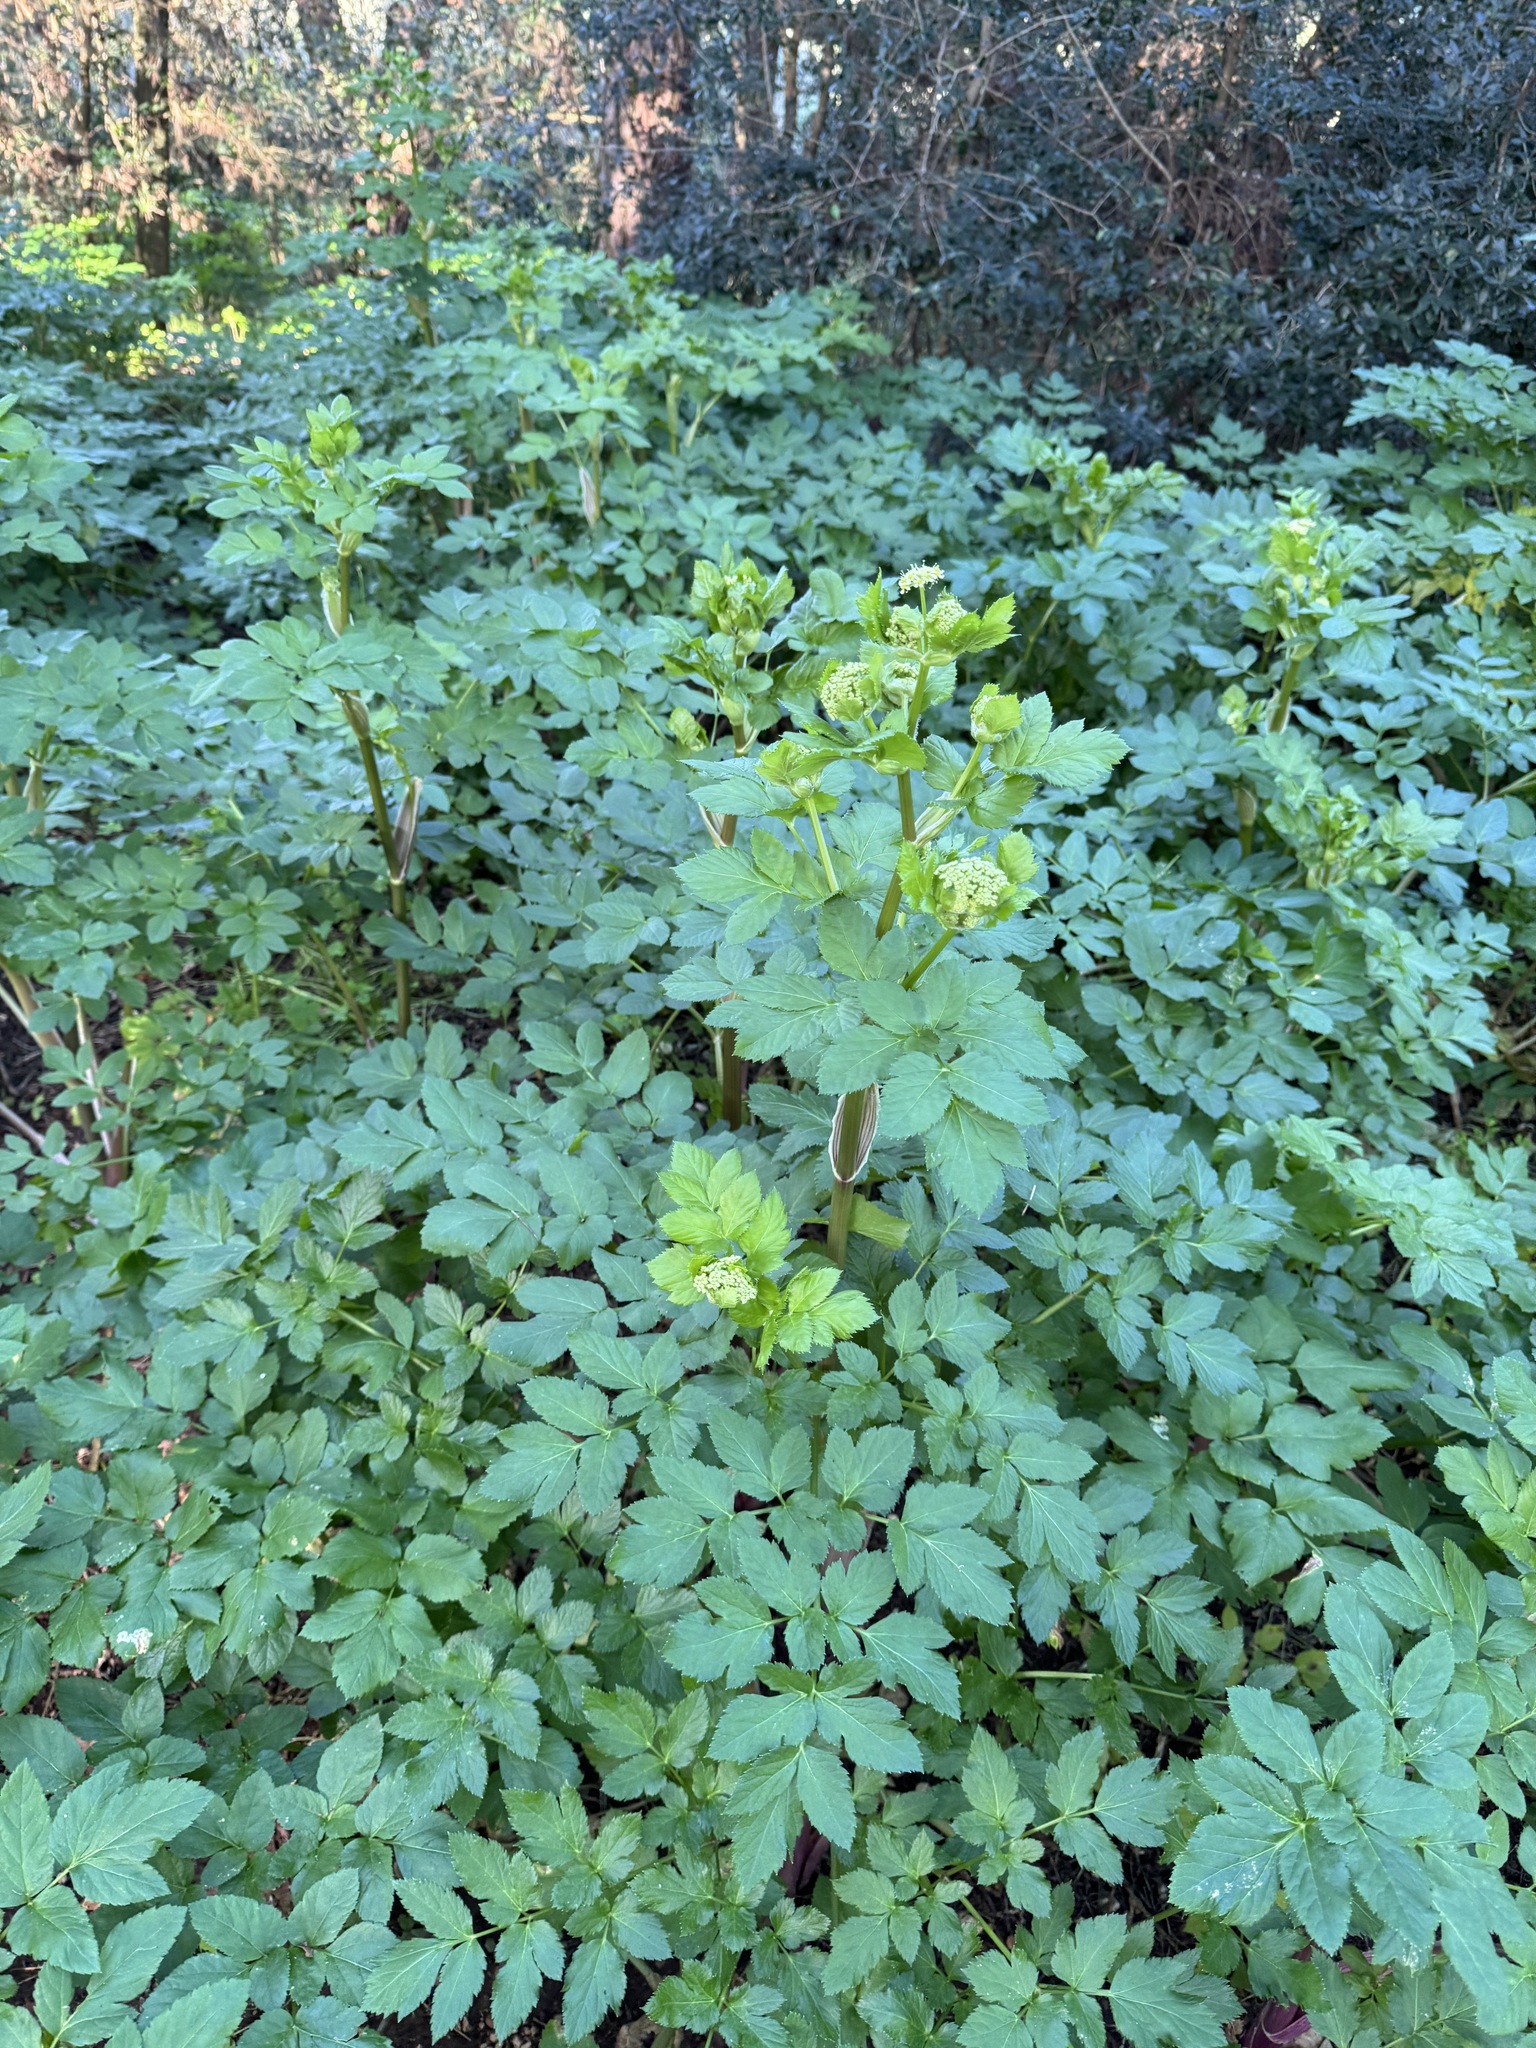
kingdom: Plantae
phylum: Tracheophyta
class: Magnoliopsida
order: Apiales
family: Apiaceae
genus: Smyrnium
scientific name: Smyrnium olusatrum
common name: Alexanders
